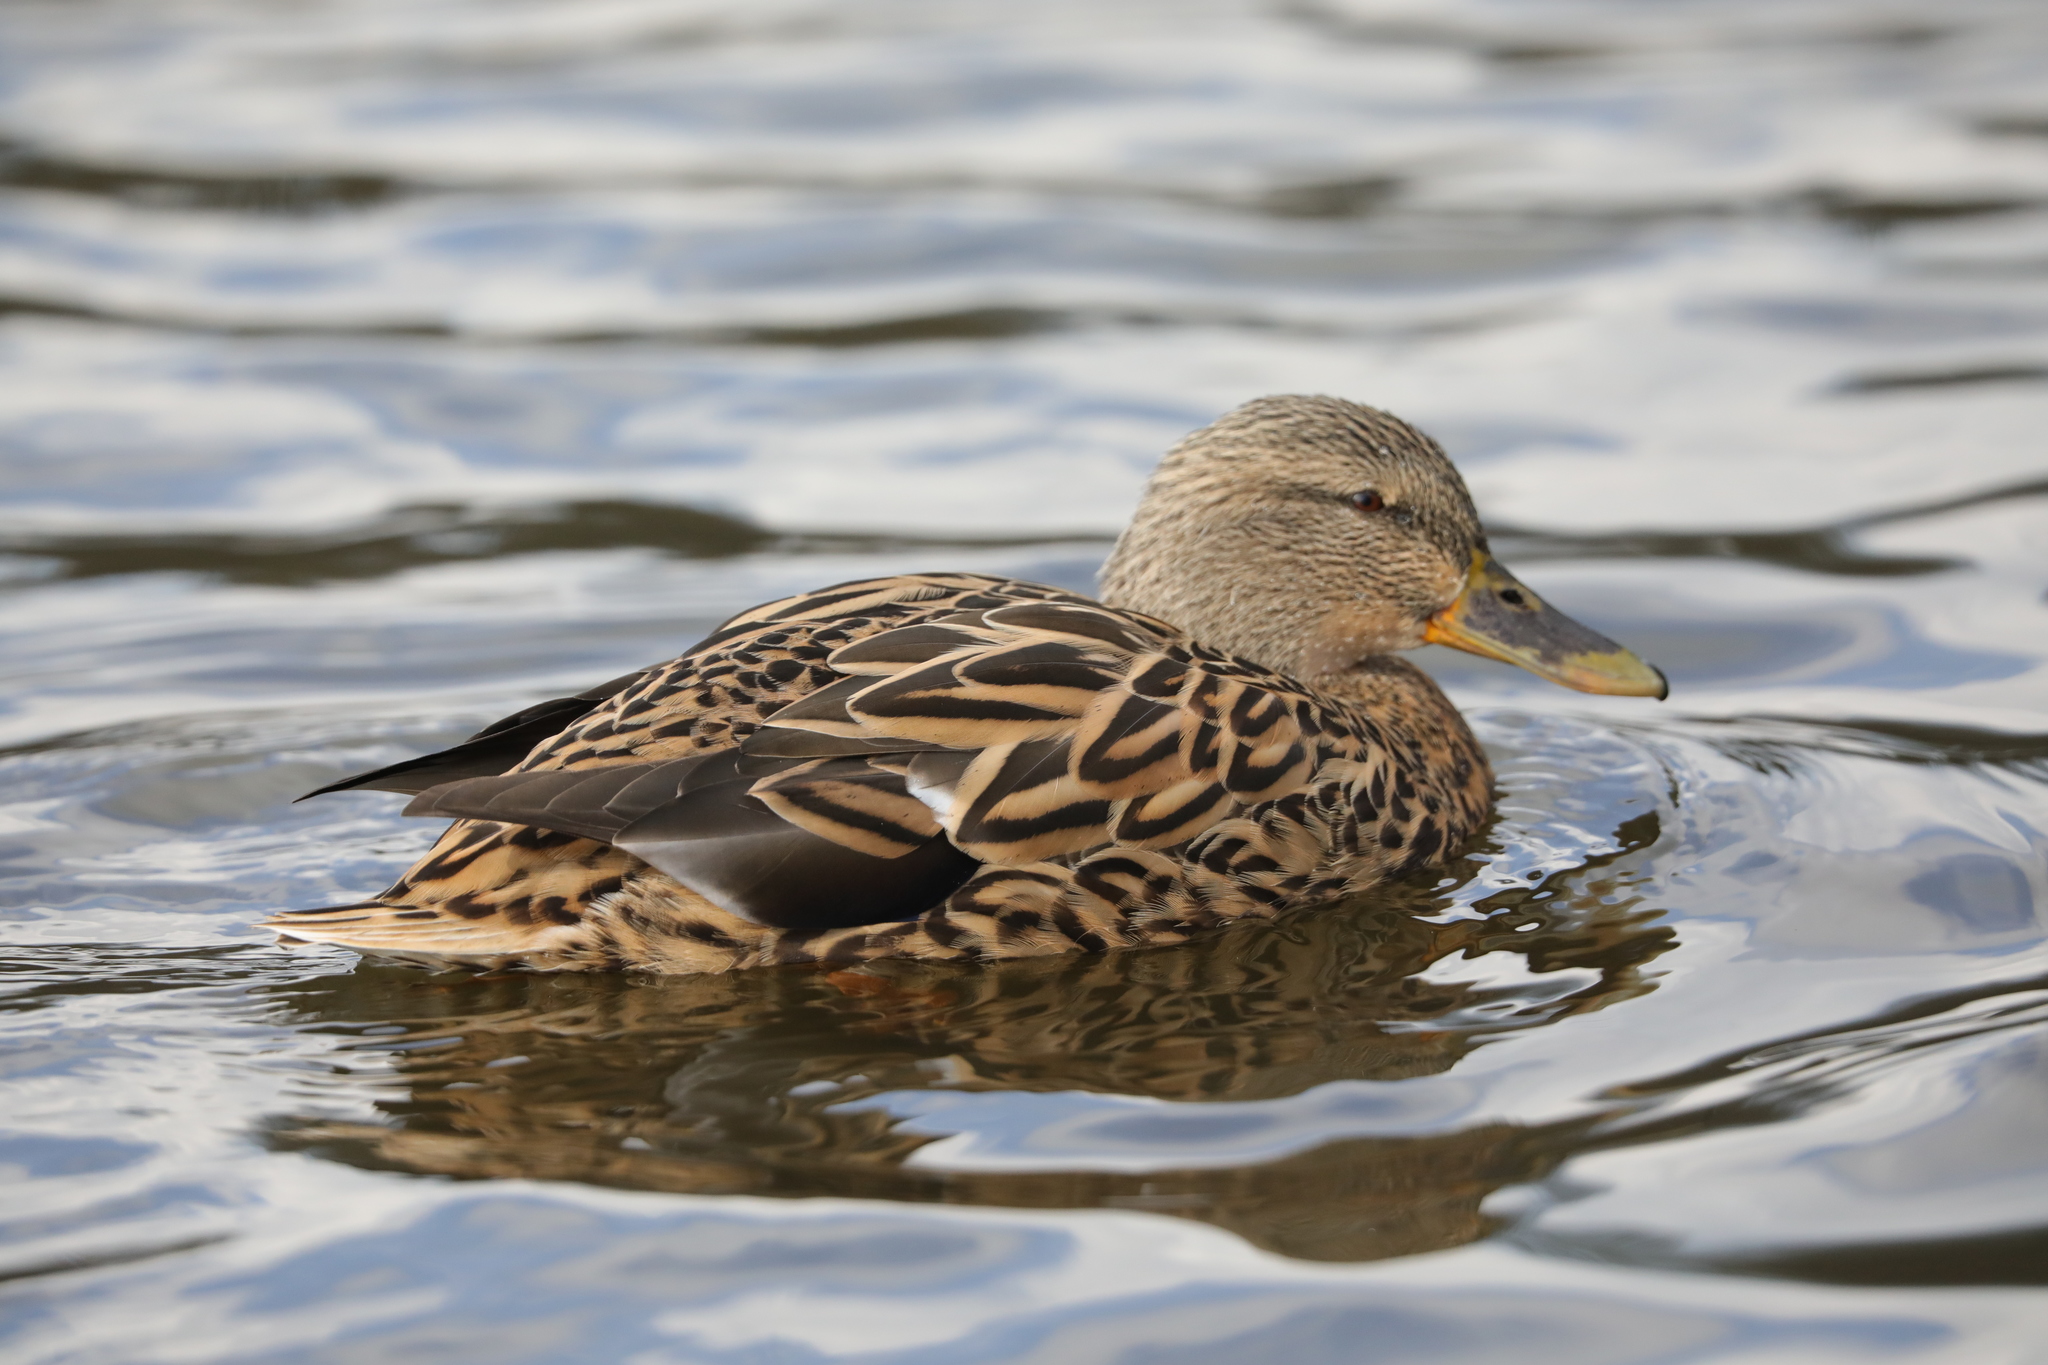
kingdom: Animalia
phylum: Chordata
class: Aves
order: Anseriformes
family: Anatidae
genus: Anas
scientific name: Anas platyrhynchos
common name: Mallard
